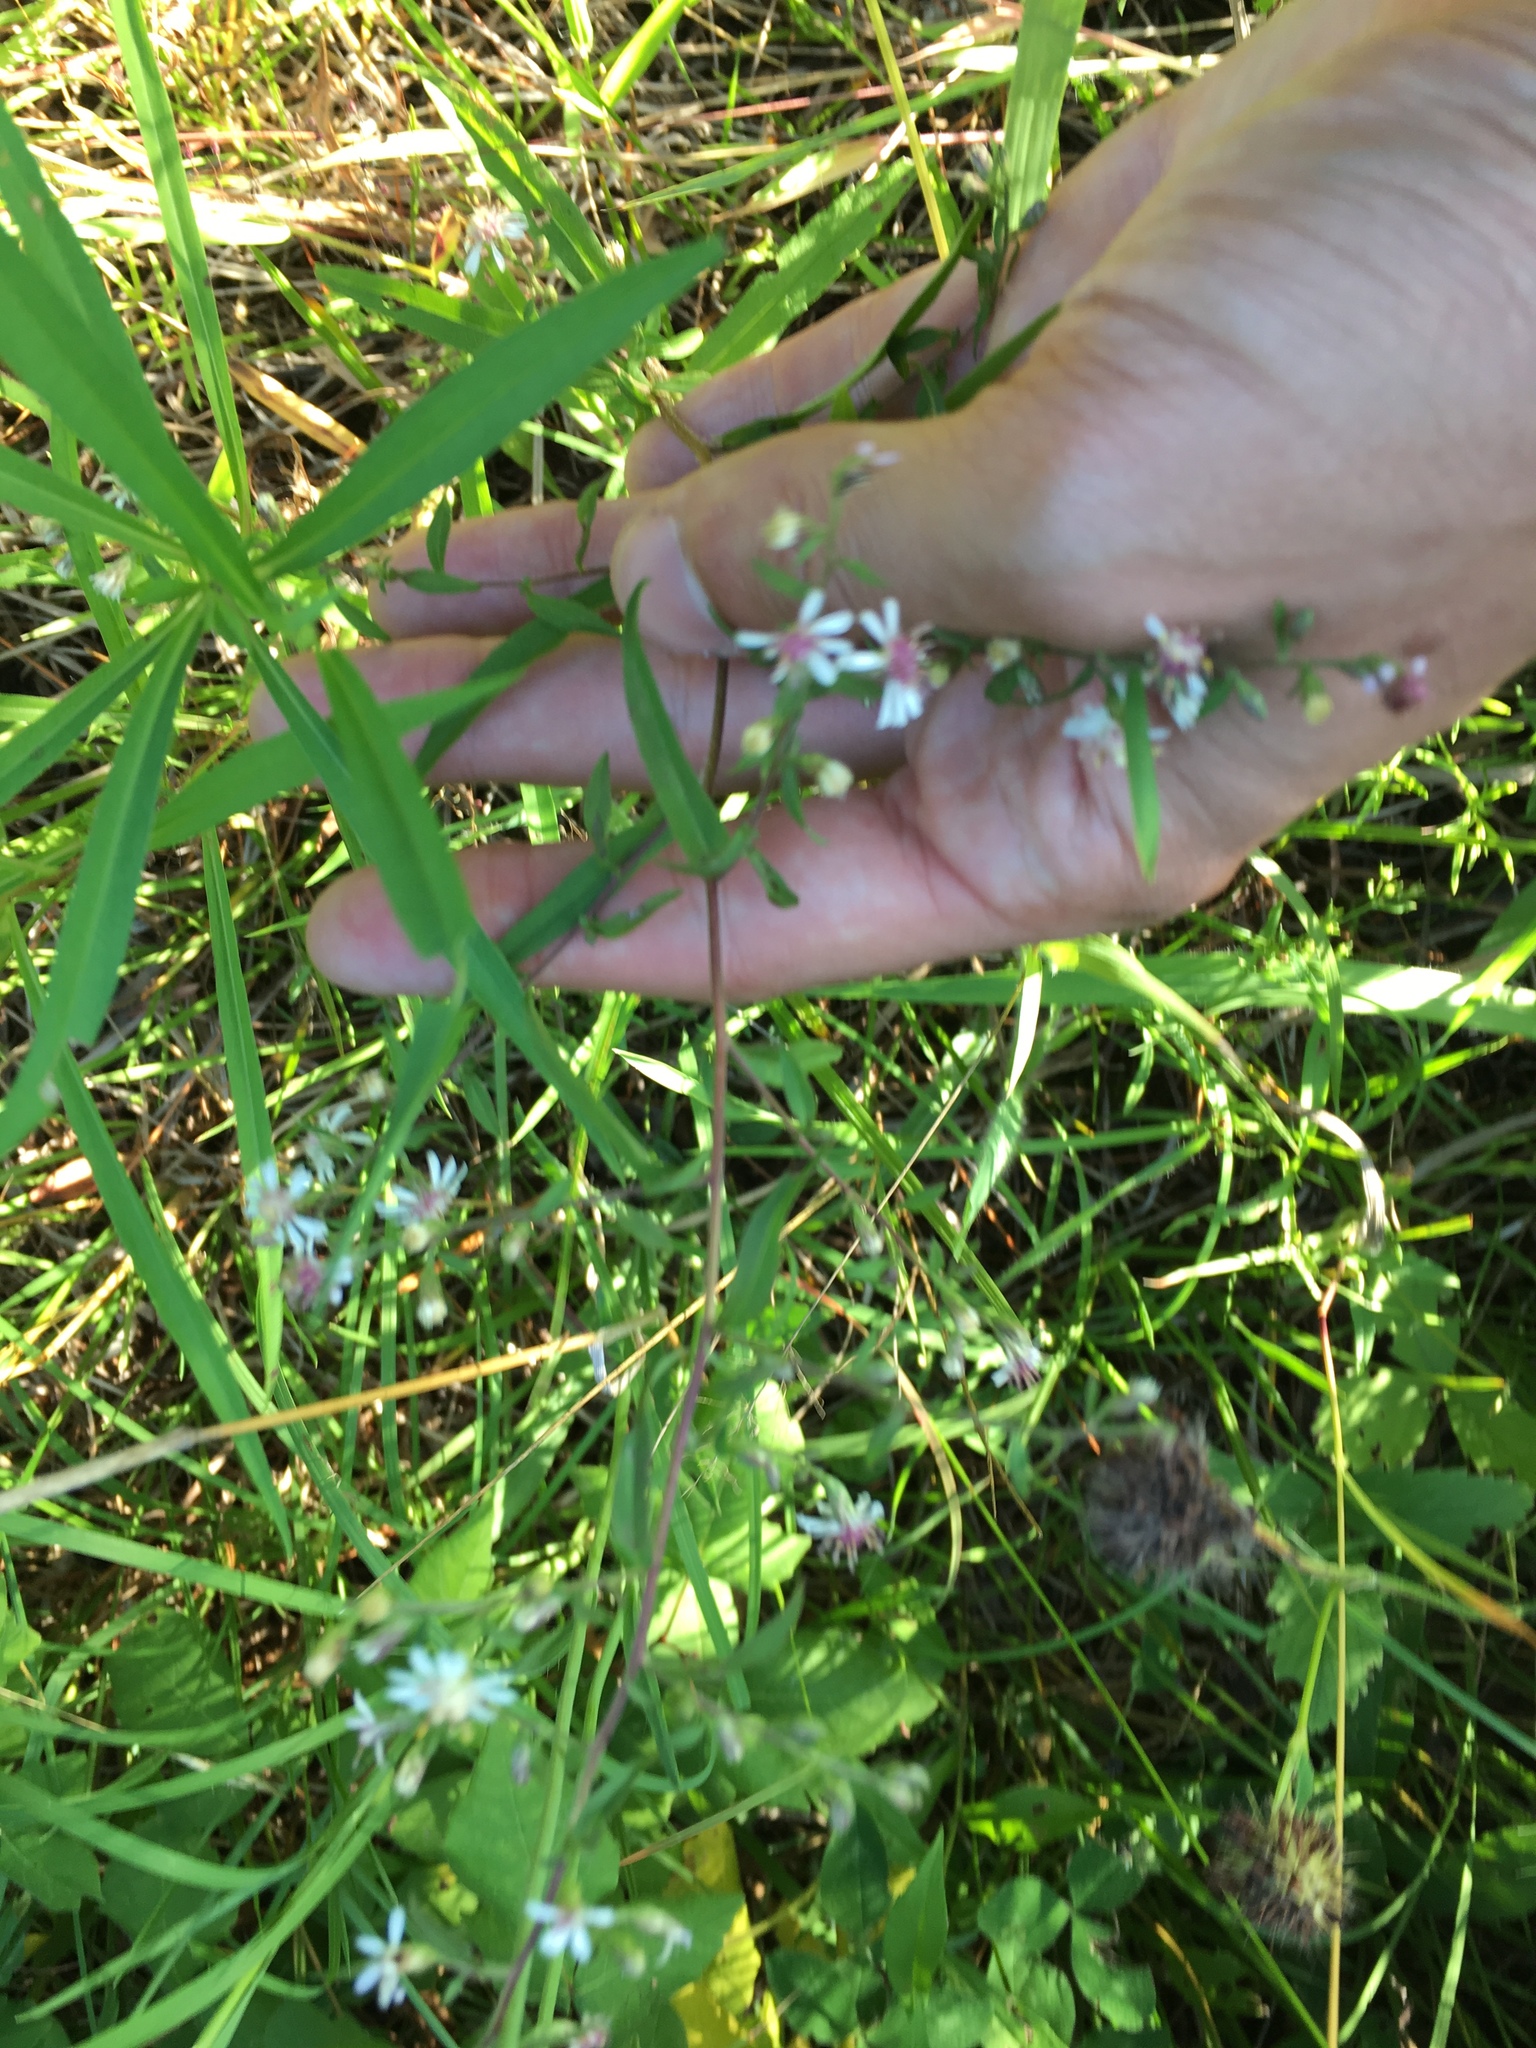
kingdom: Plantae
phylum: Tracheophyta
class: Magnoliopsida
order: Asterales
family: Asteraceae
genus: Symphyotrichum
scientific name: Symphyotrichum lateriflorum
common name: Calico aster
